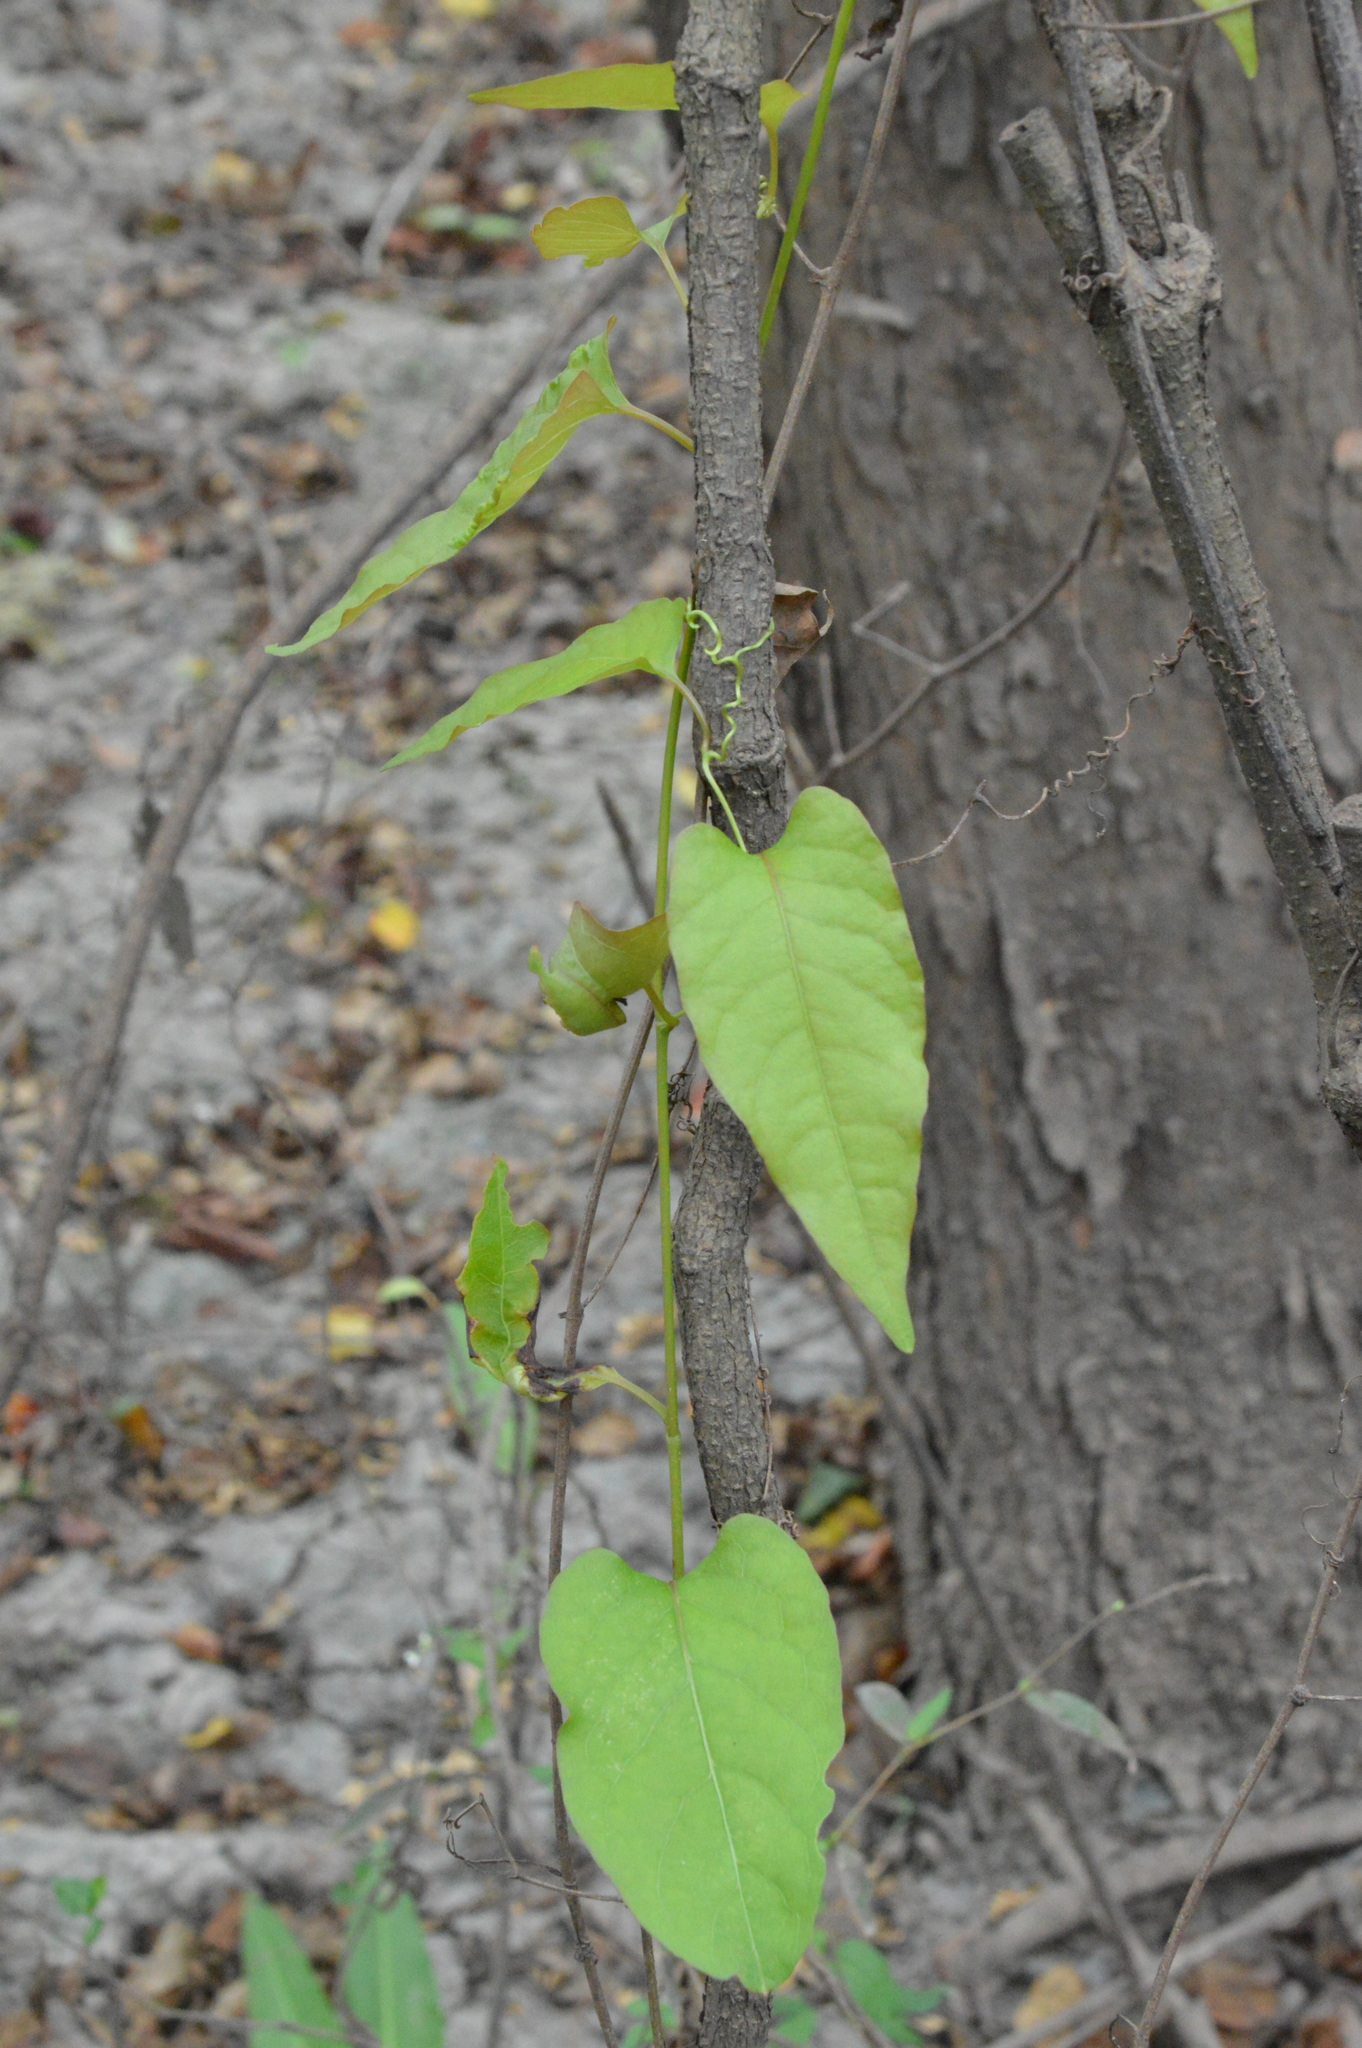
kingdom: Plantae
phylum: Tracheophyta
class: Magnoliopsida
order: Caryophyllales
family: Polygonaceae
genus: Brunnichia
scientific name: Brunnichia ovata
